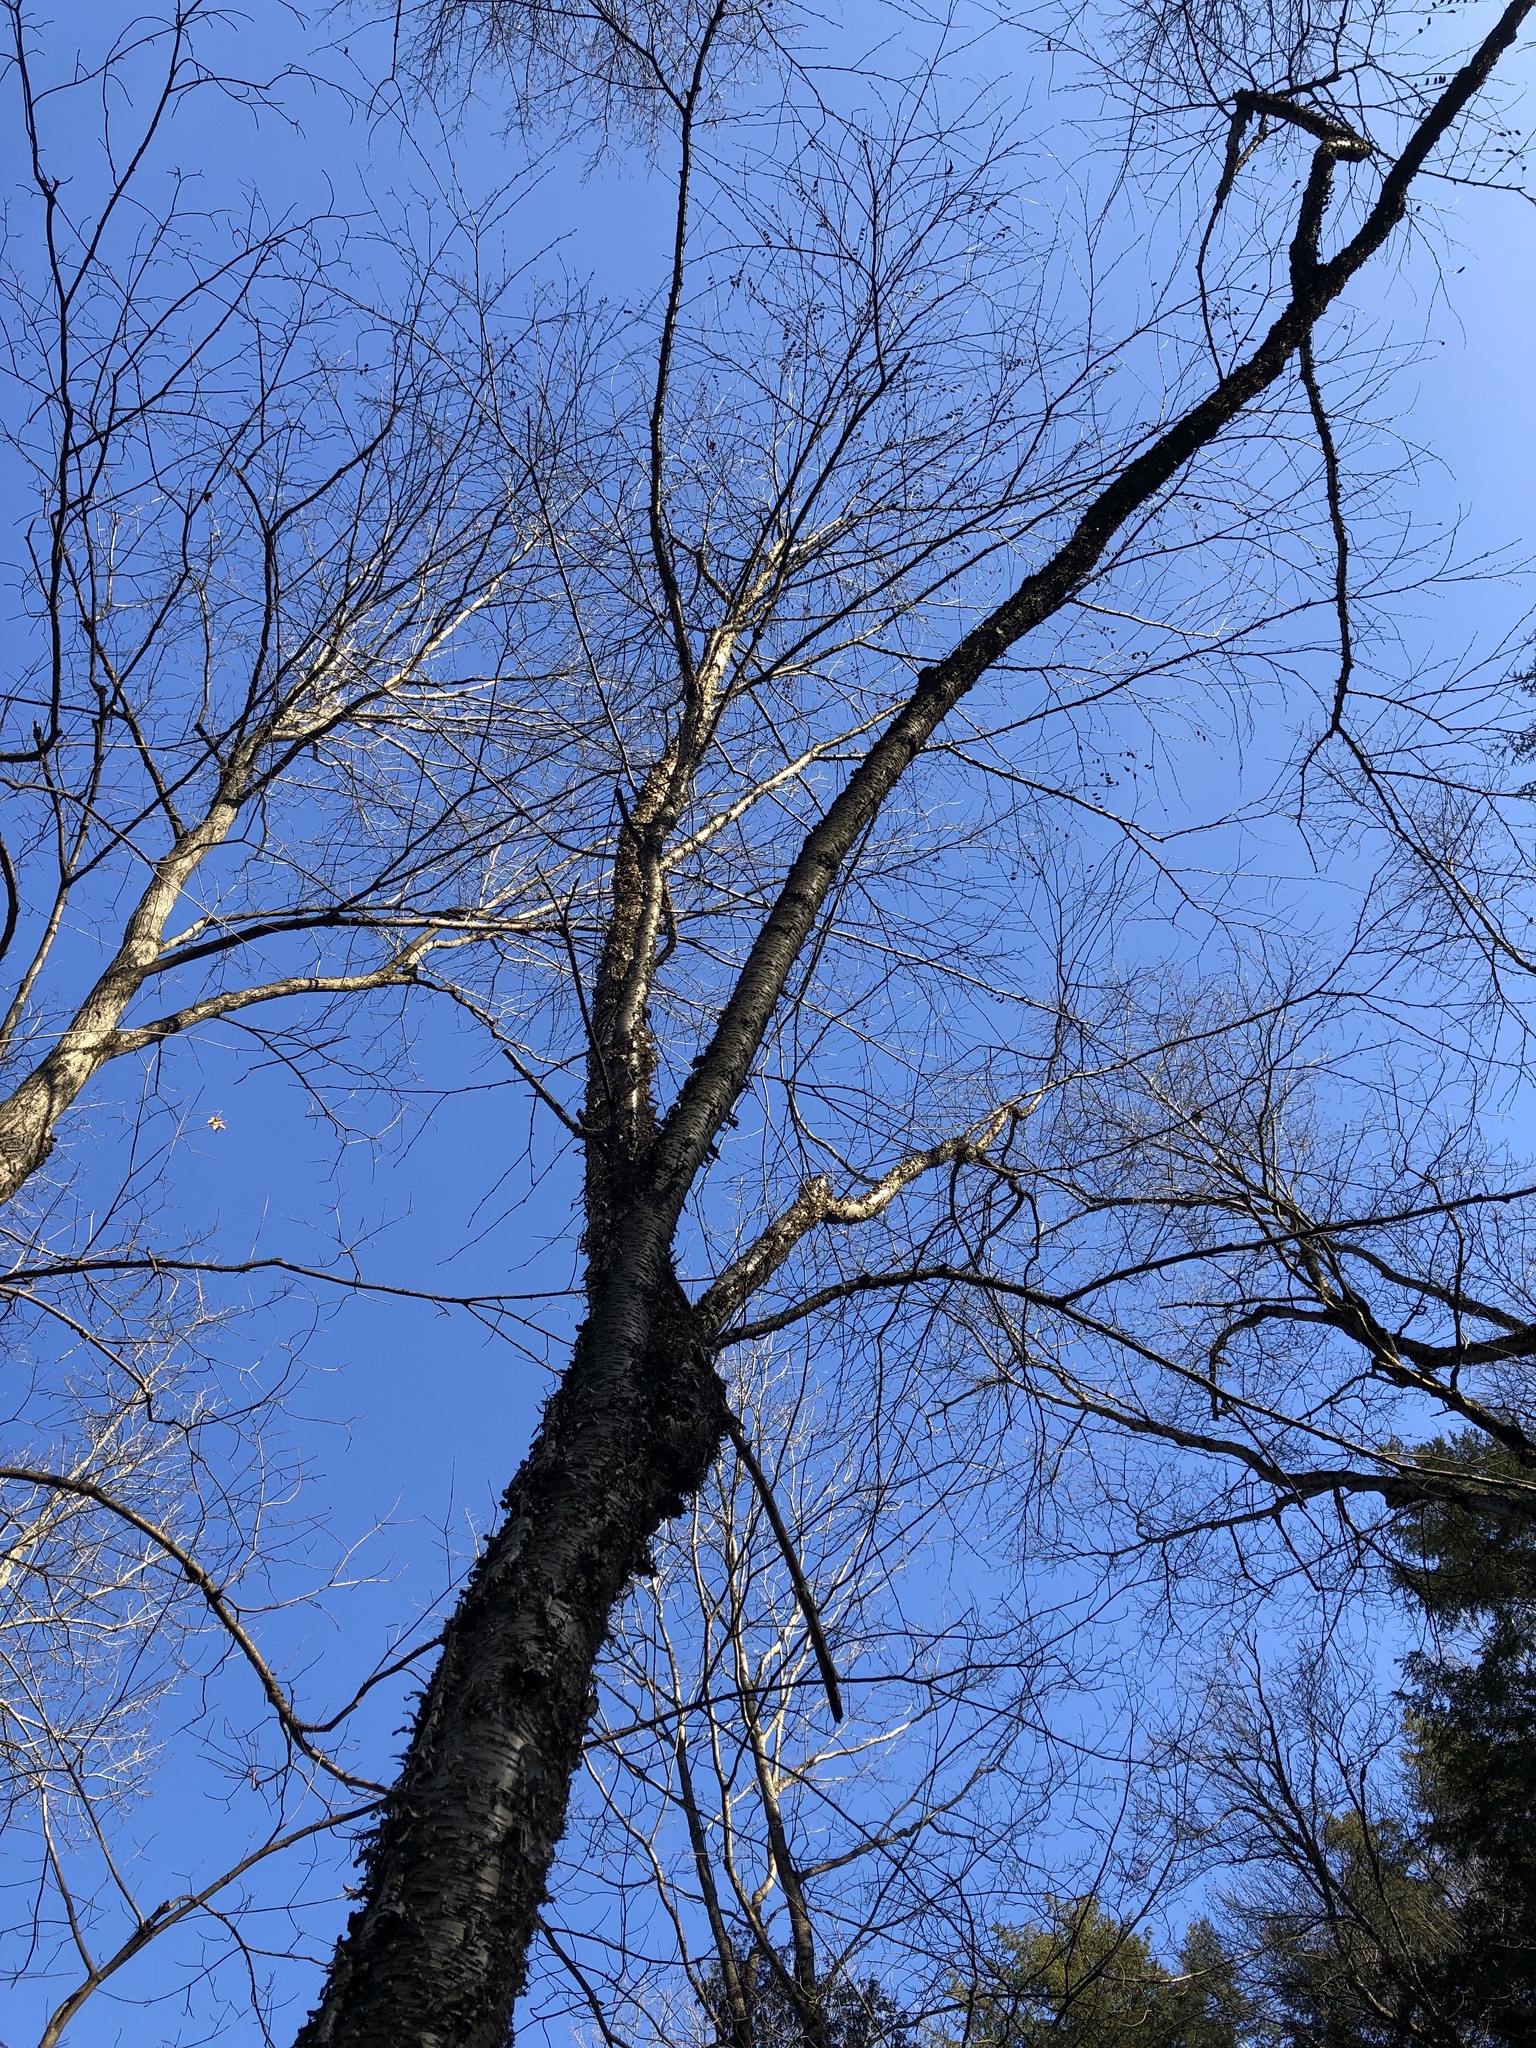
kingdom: Plantae
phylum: Tracheophyta
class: Magnoliopsida
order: Fagales
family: Betulaceae
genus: Betula
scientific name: Betula alleghaniensis
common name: Yellow birch
